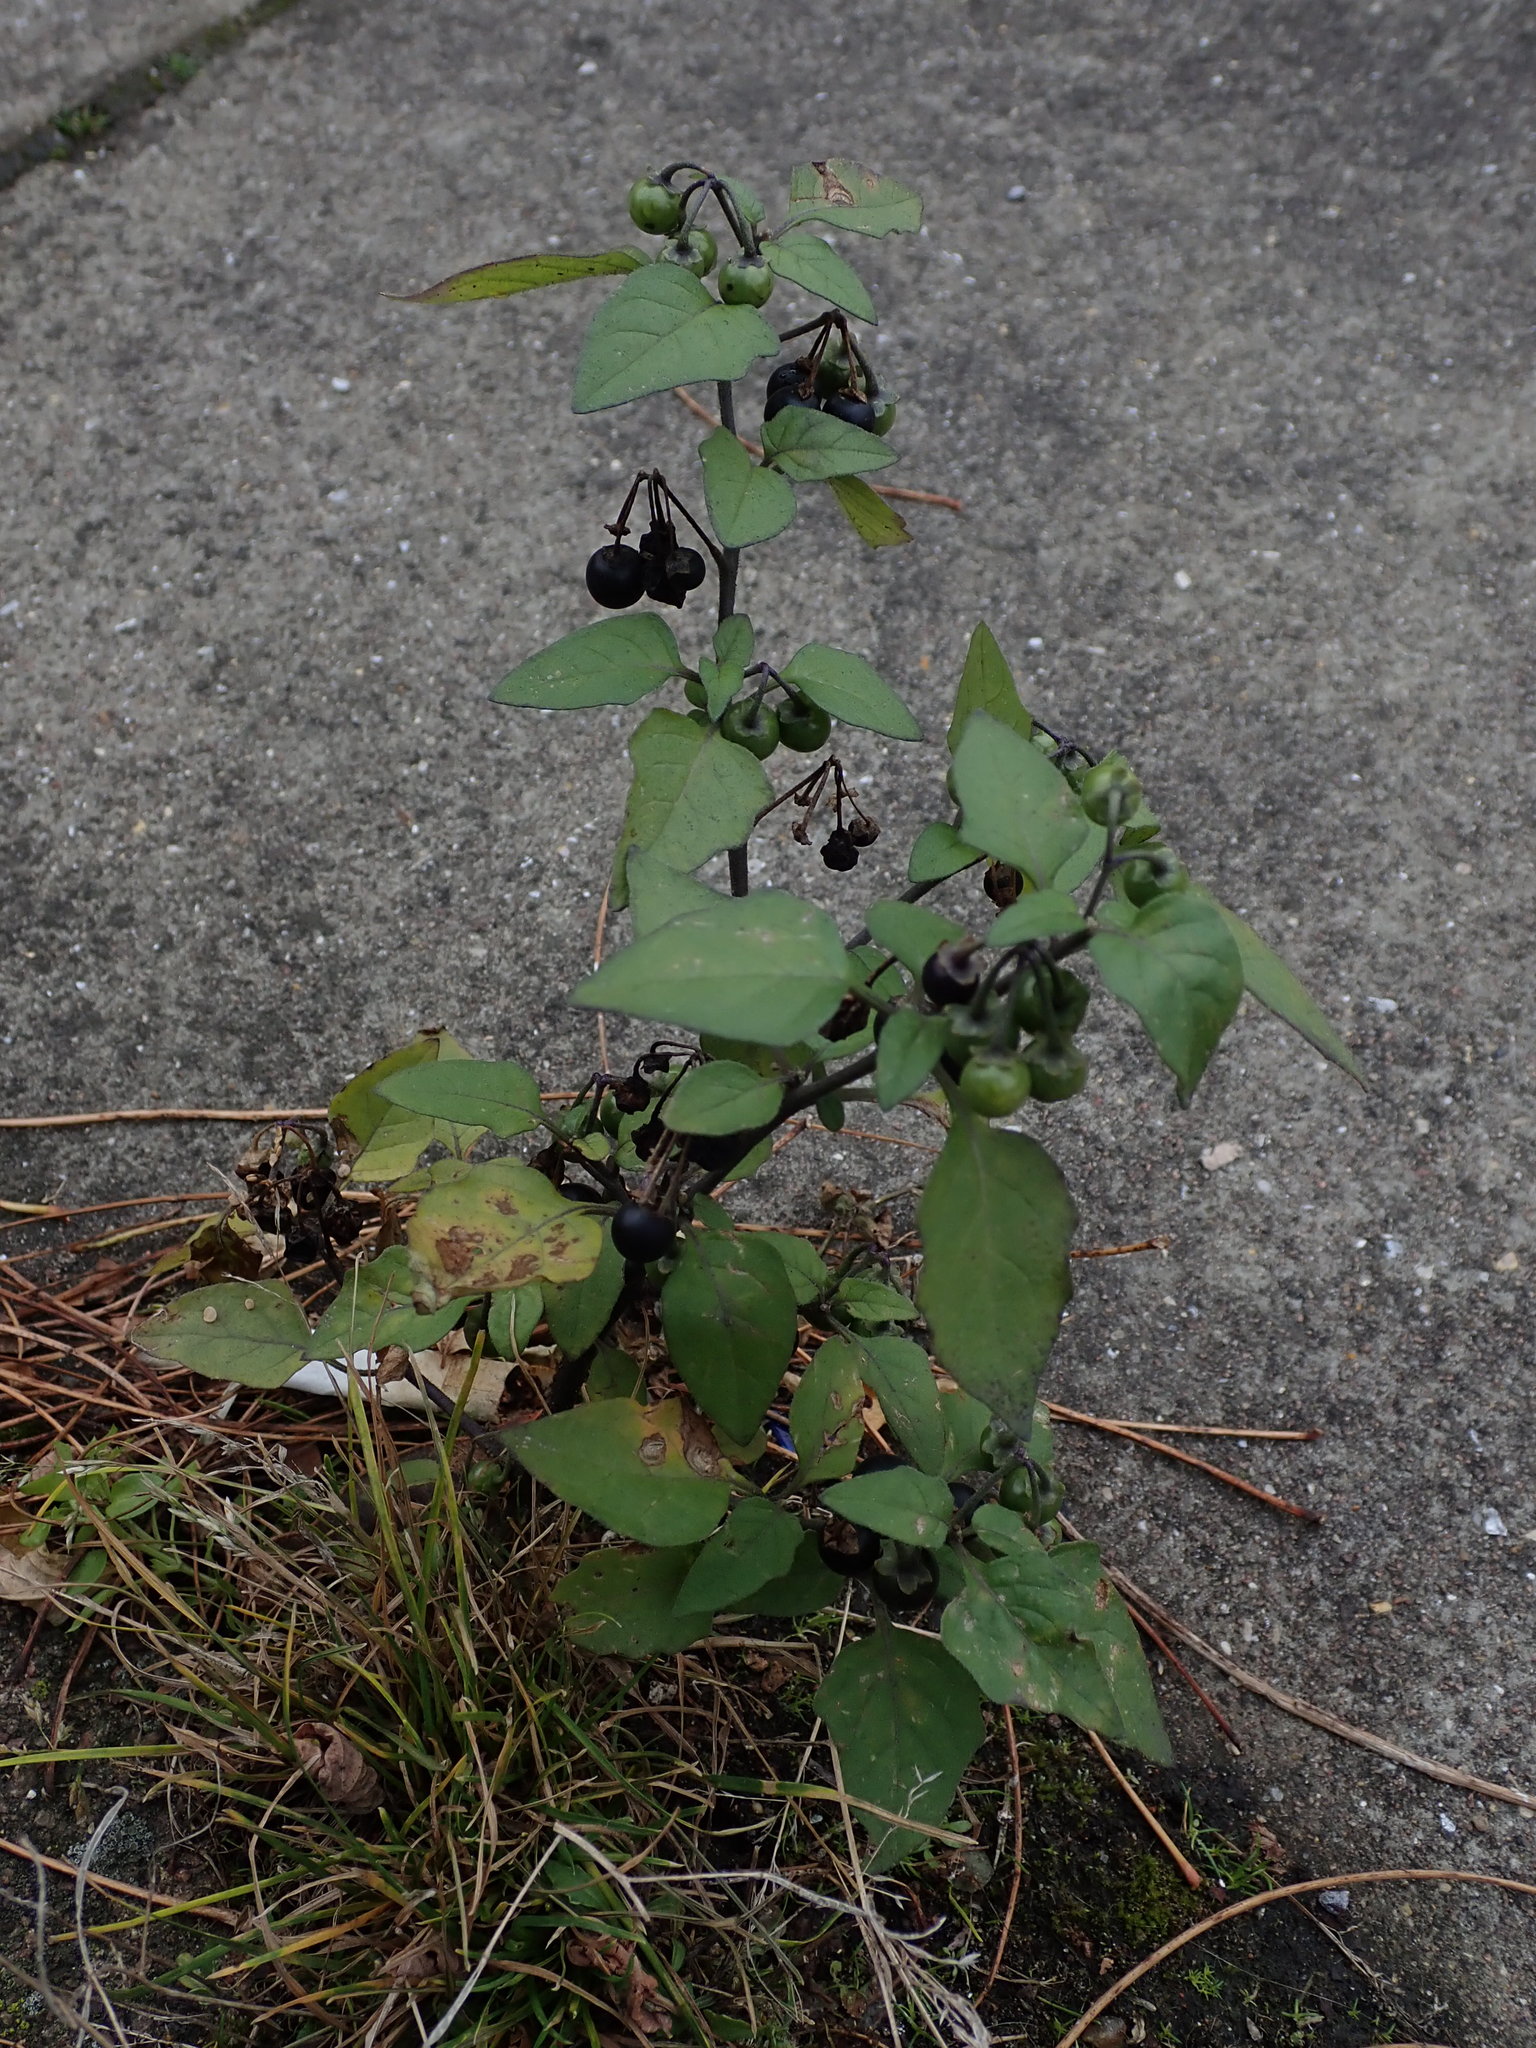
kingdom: Plantae
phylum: Tracheophyta
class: Magnoliopsida
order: Solanales
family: Solanaceae
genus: Solanum
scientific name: Solanum nigrum
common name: Black nightshade
